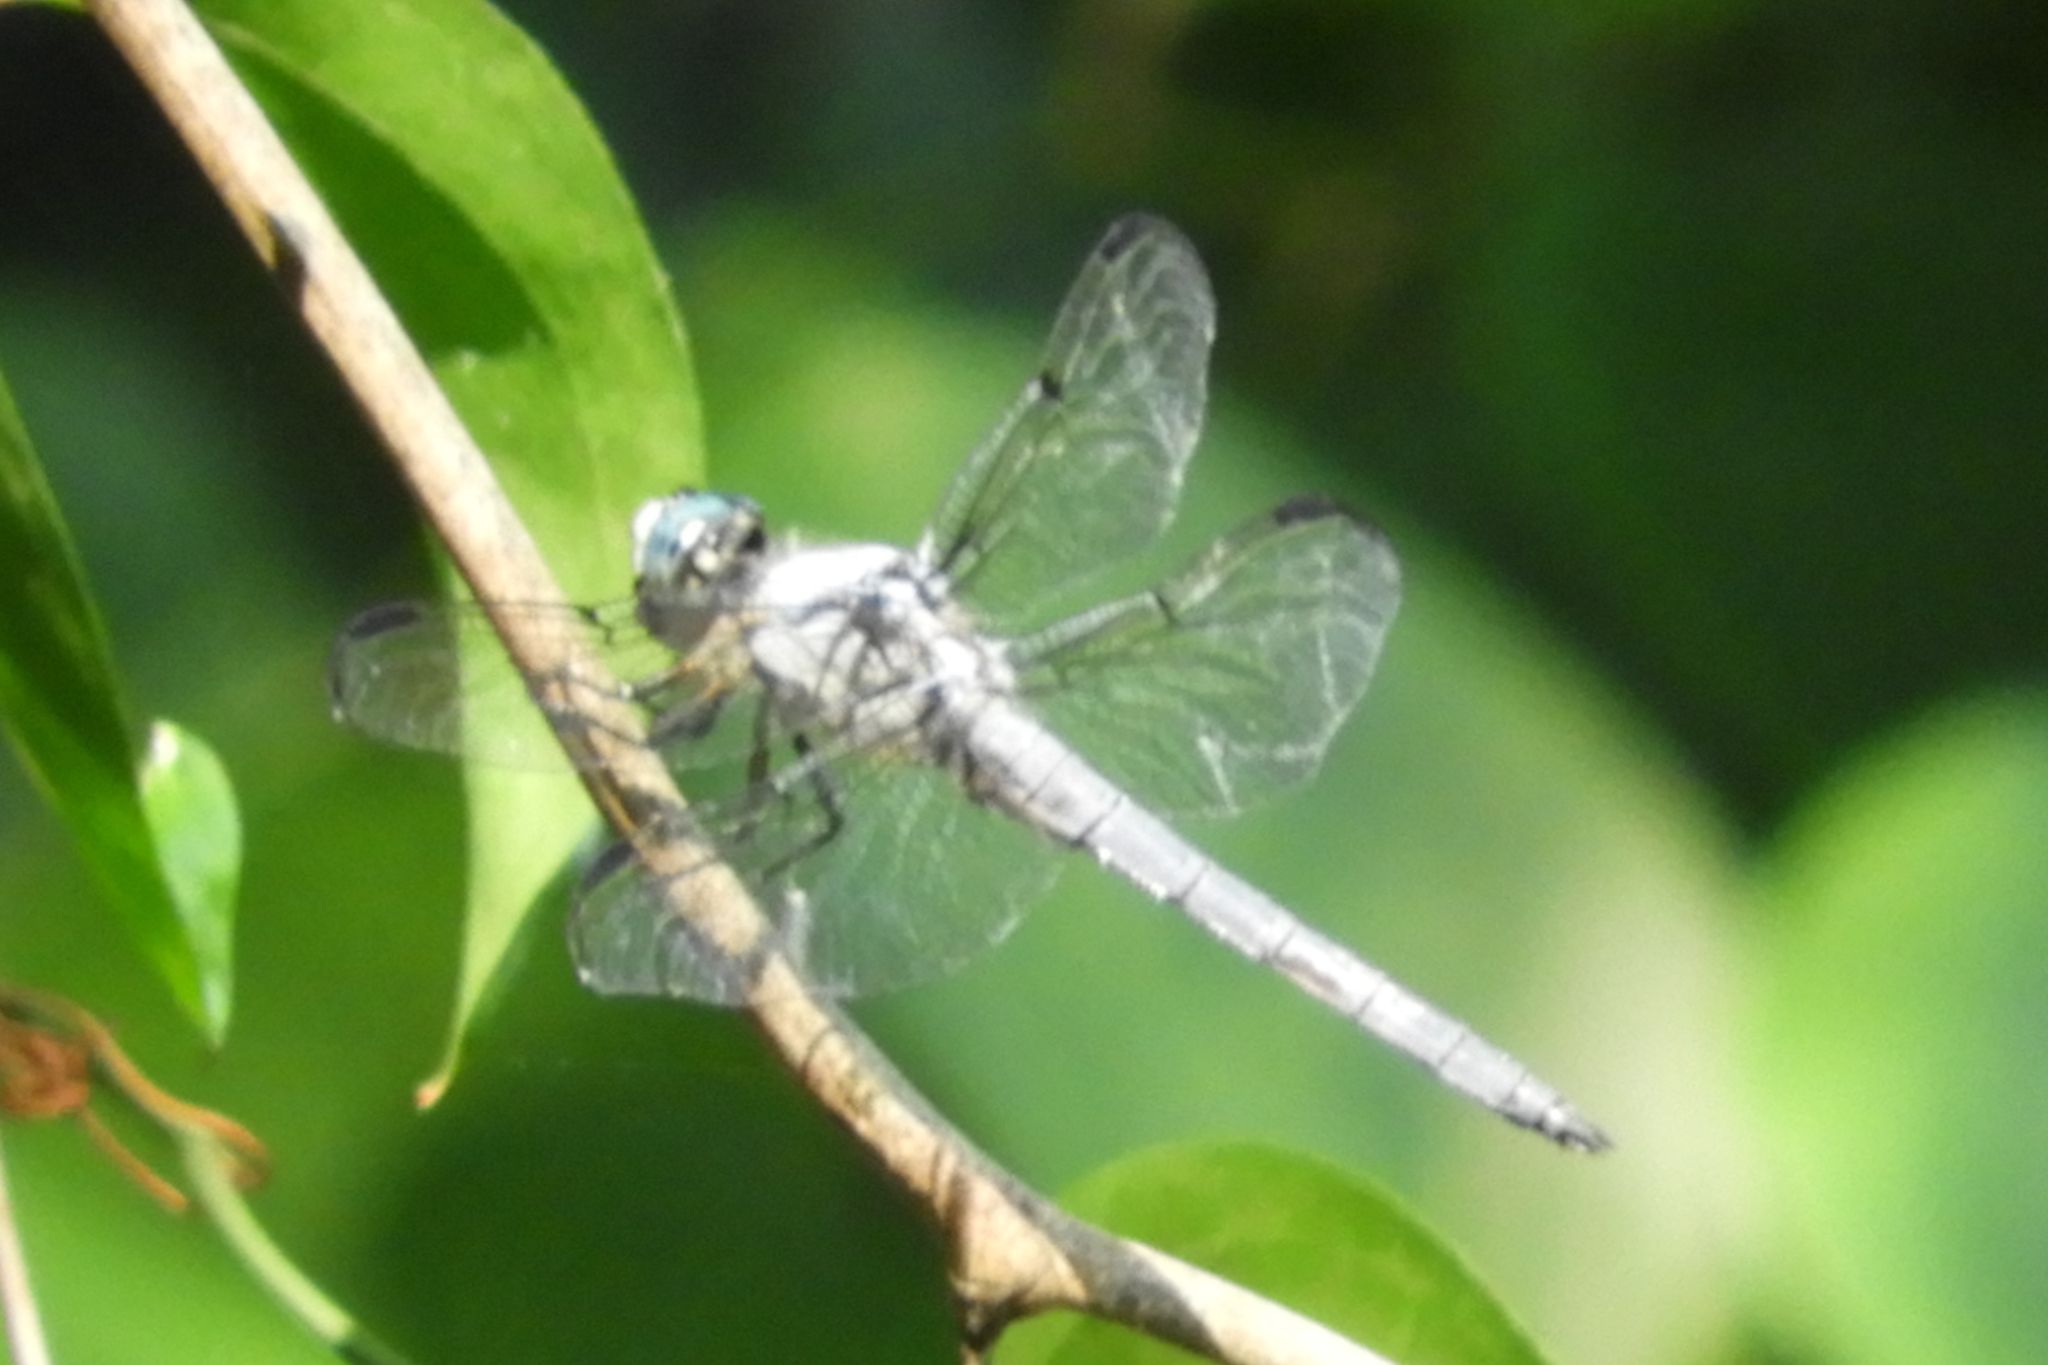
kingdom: Animalia
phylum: Arthropoda
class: Insecta
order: Odonata
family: Libellulidae
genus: Libellula
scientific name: Libellula vibrans
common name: Great blue skimmer
